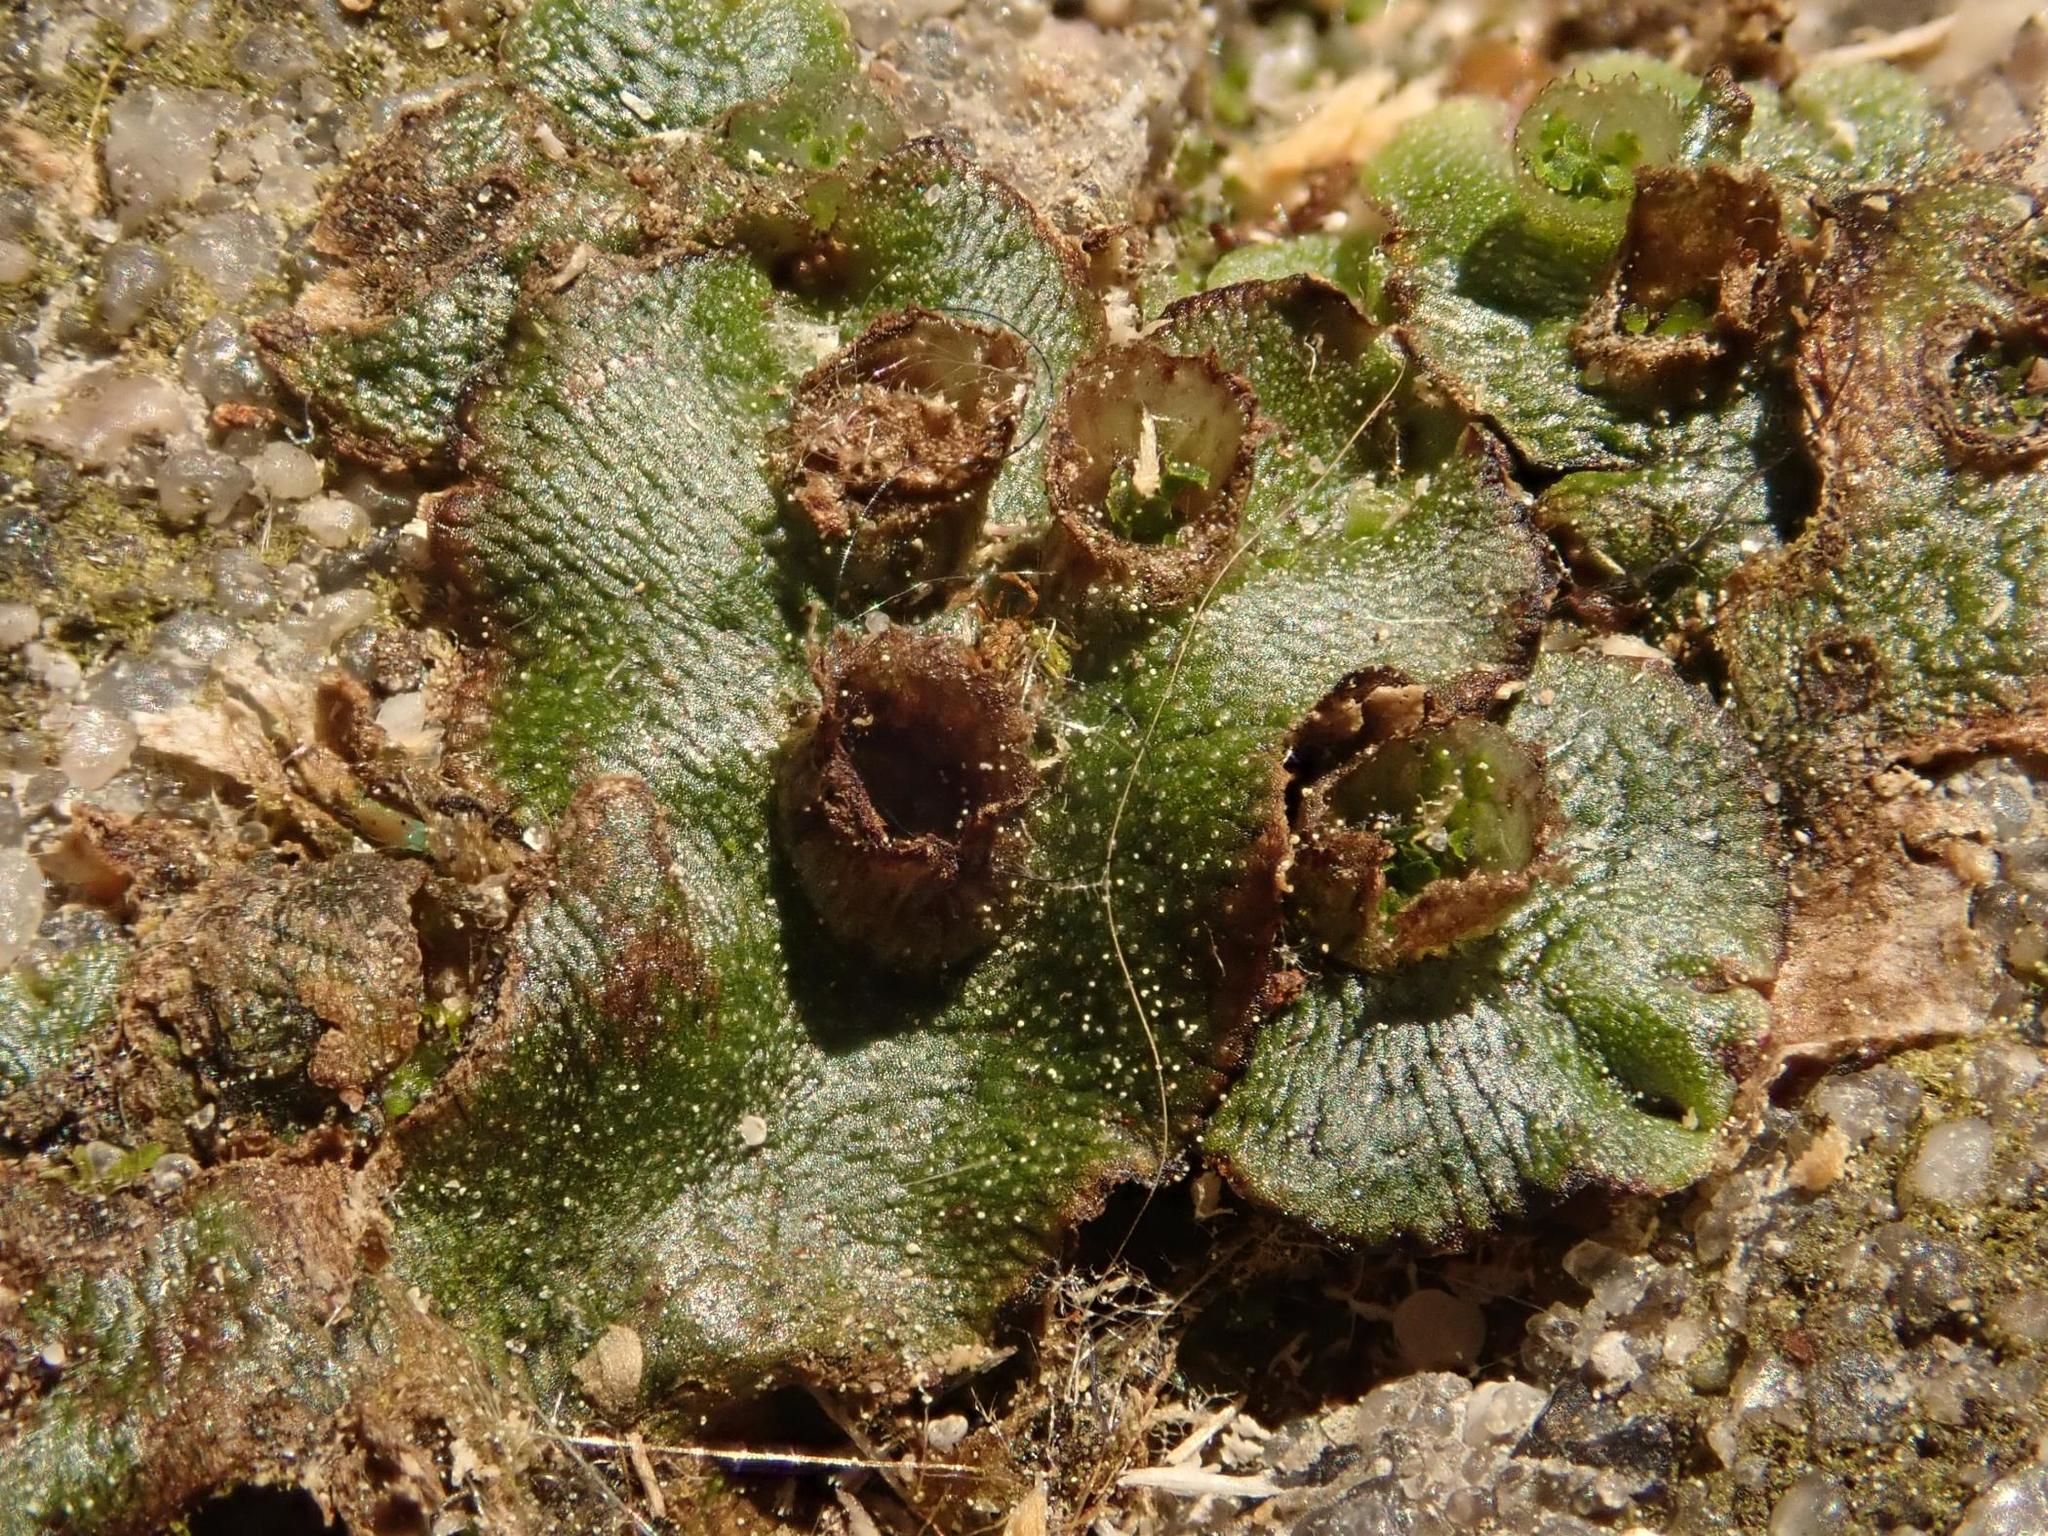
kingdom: Plantae
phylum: Marchantiophyta
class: Marchantiopsida
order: Marchantiales
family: Marchantiaceae
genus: Marchantia
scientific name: Marchantia polymorpha
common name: Common liverwort
